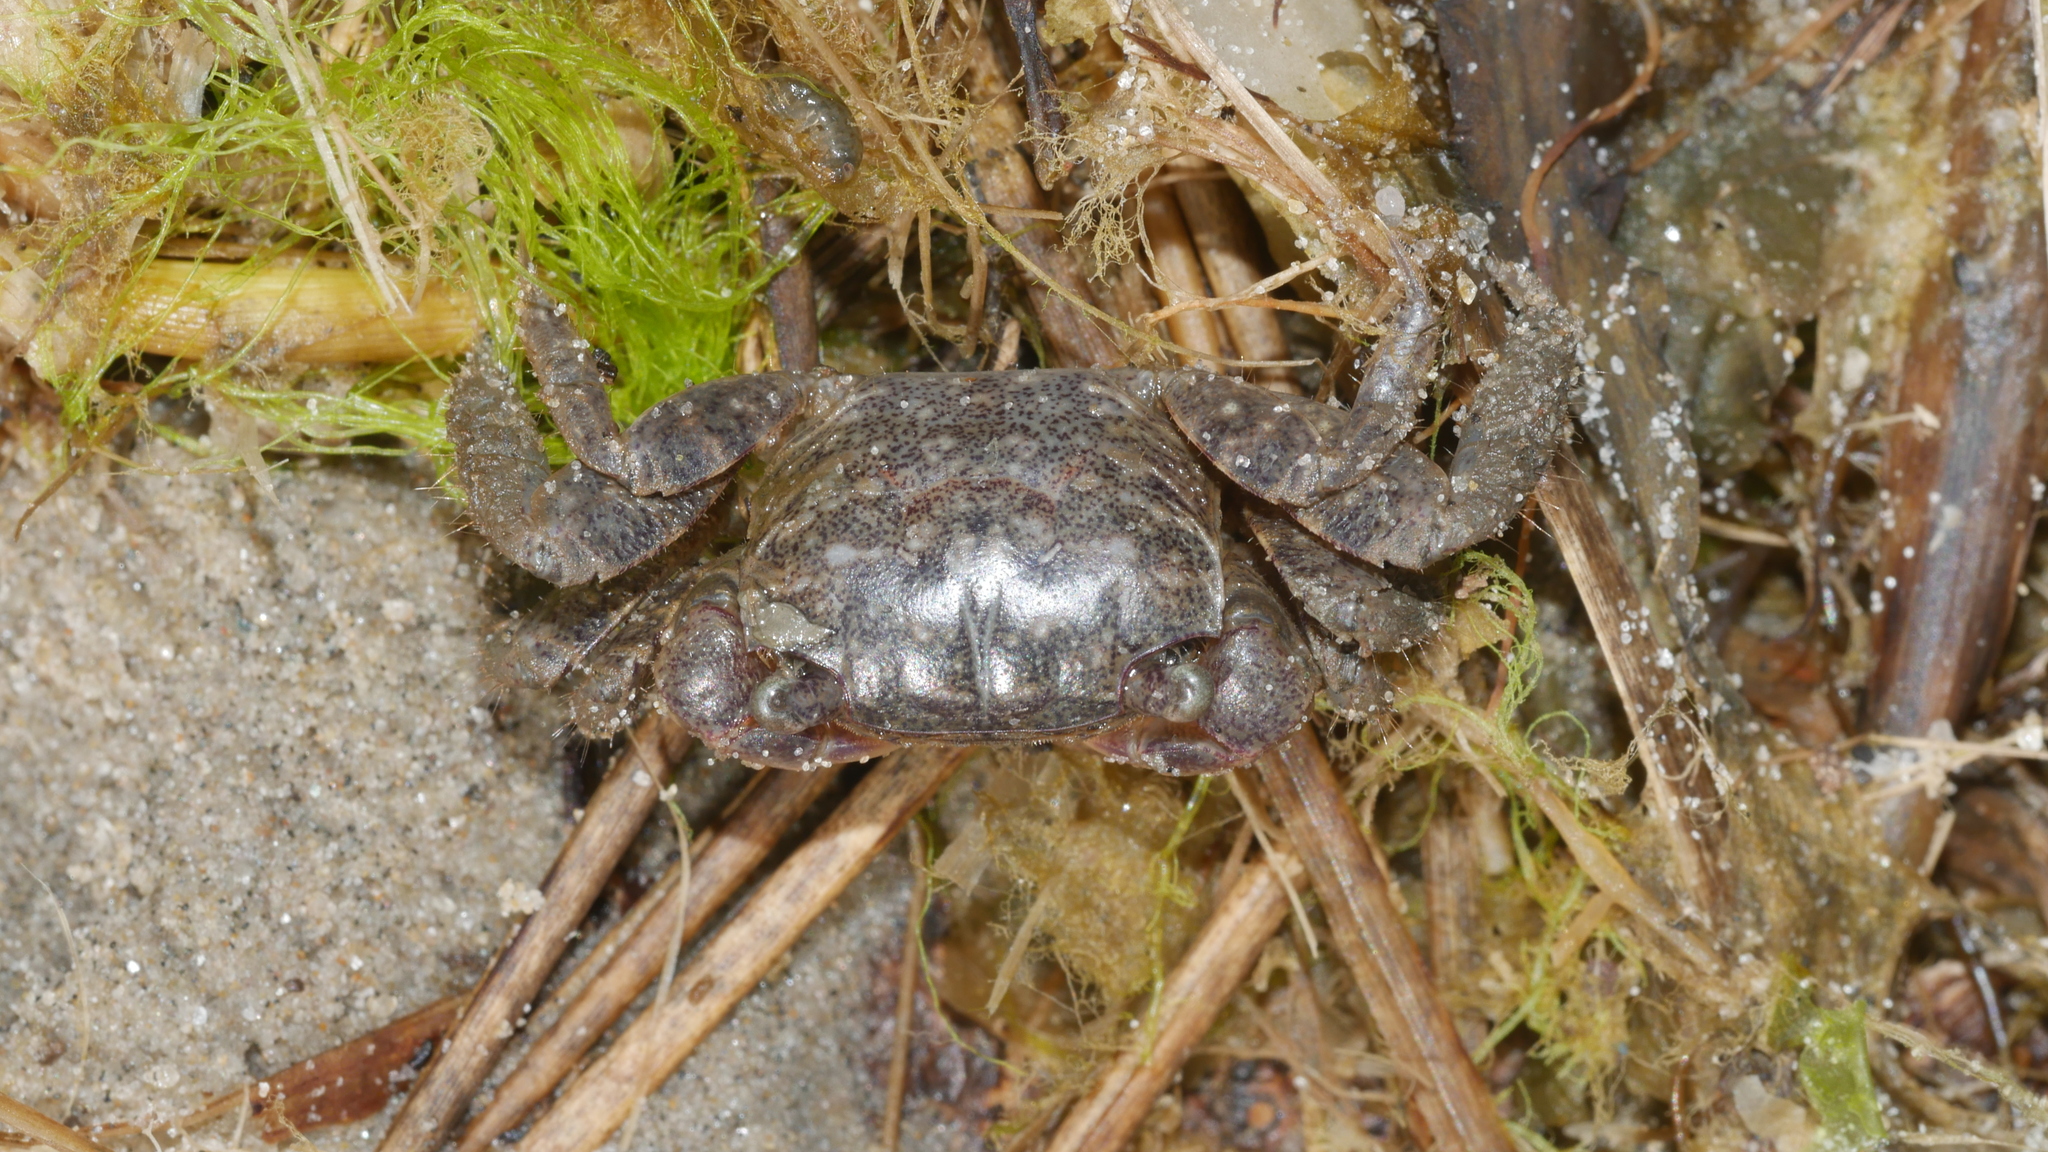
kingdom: Animalia
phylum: Arthropoda
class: Malacostraca
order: Decapoda
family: Sesarmidae
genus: Sesarma
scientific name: Sesarma reticulatum
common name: Heavy marsh crab
